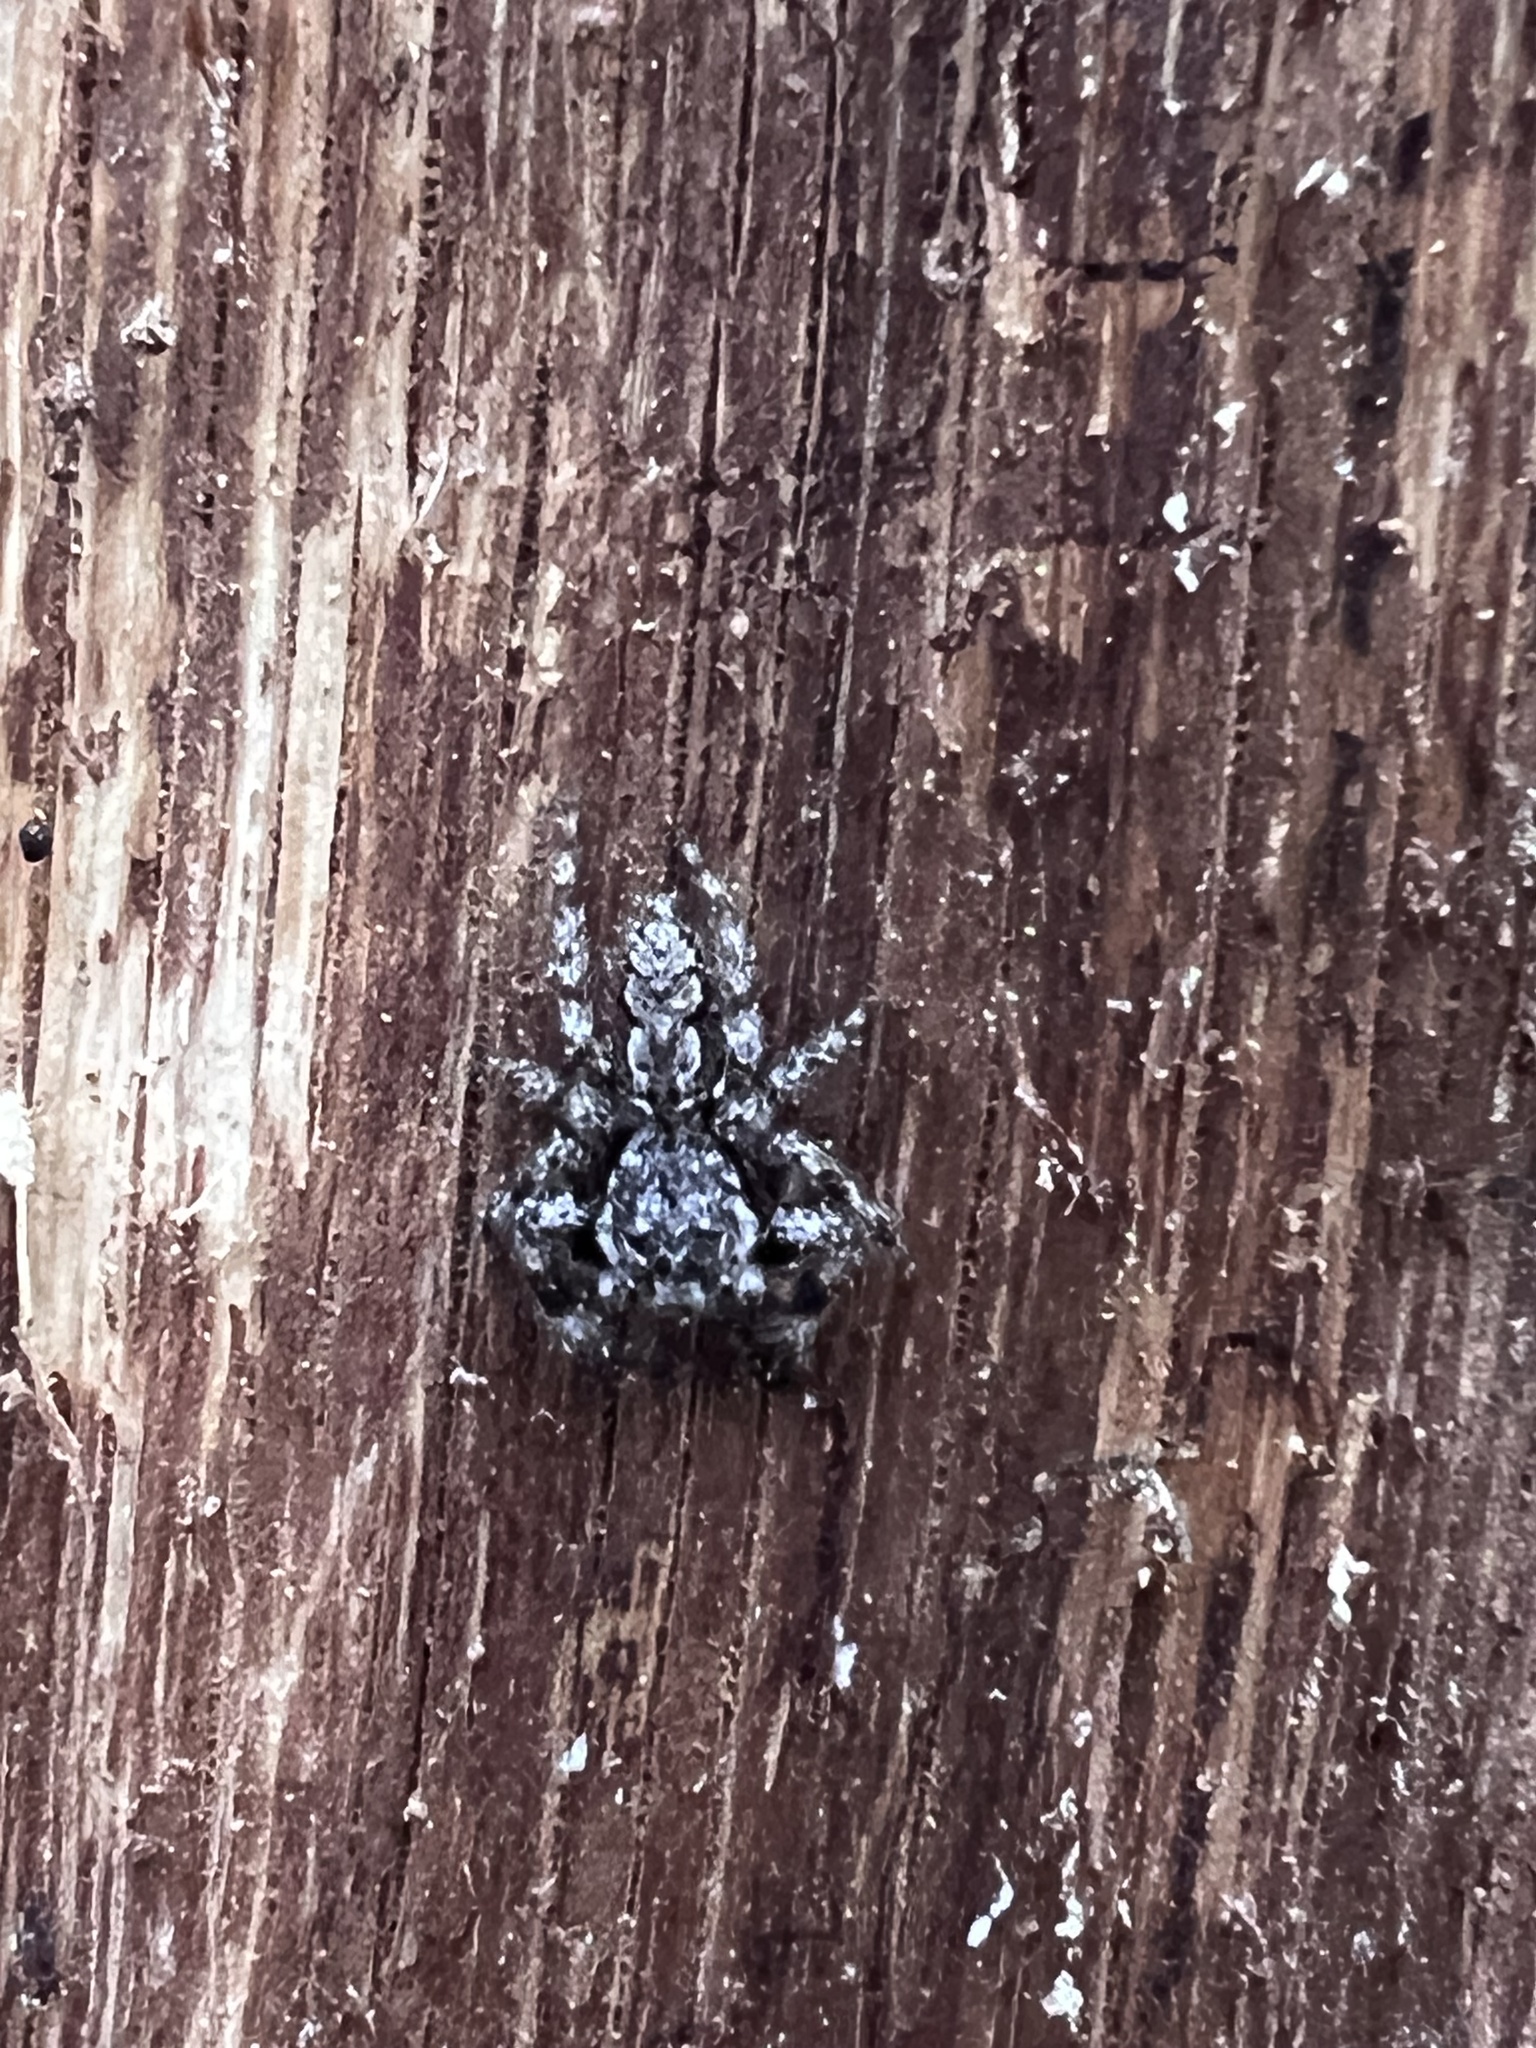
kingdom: Animalia
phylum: Arthropoda
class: Arachnida
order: Araneae
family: Salticidae
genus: Platycryptus
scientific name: Platycryptus undatus
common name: Tan jumping spider
